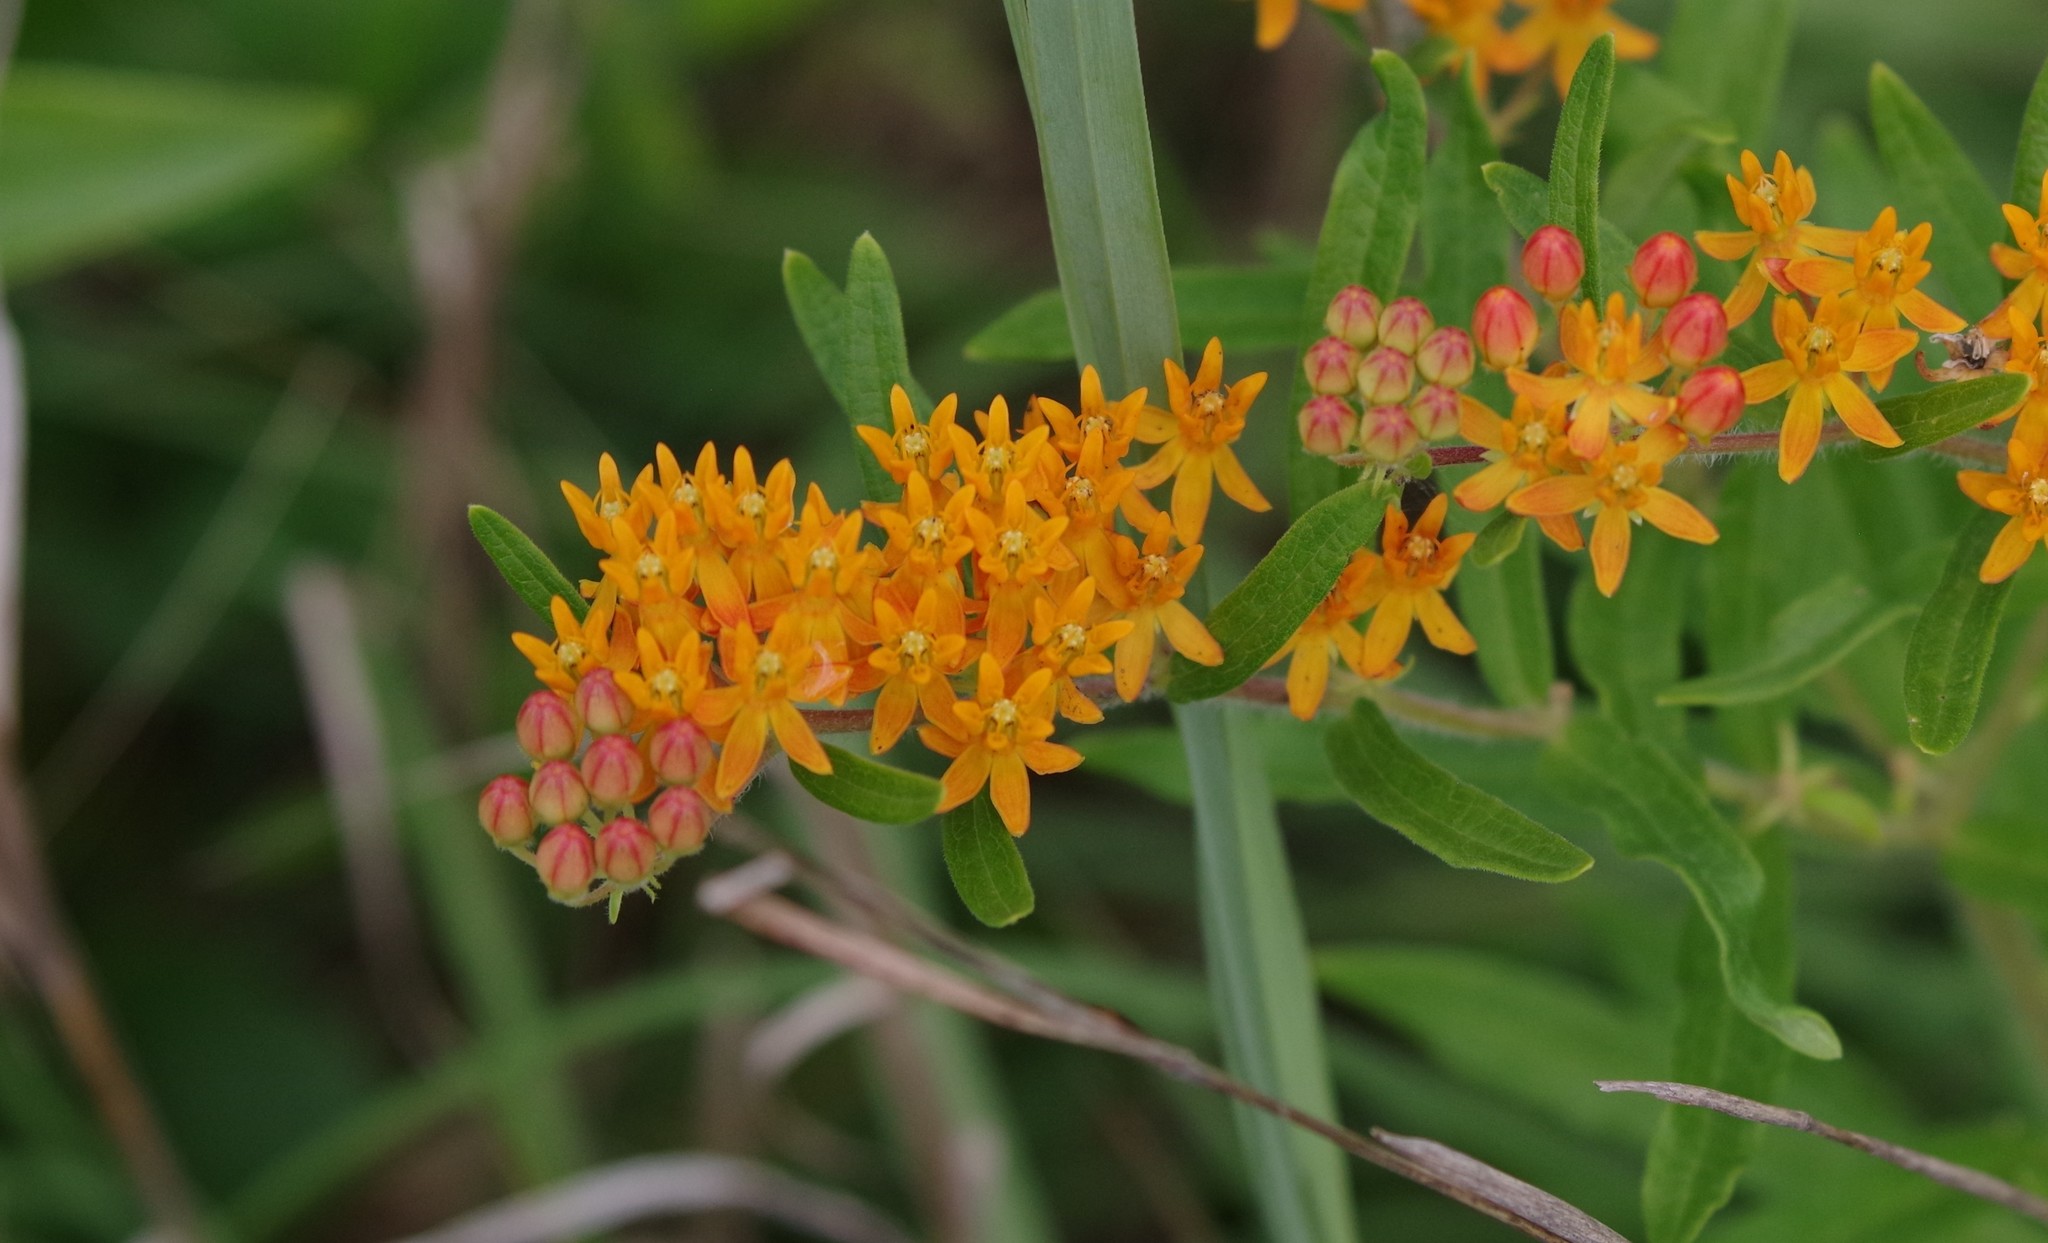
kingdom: Plantae
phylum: Tracheophyta
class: Magnoliopsida
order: Gentianales
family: Apocynaceae
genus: Asclepias
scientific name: Asclepias tuberosa
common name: Butterfly milkweed
